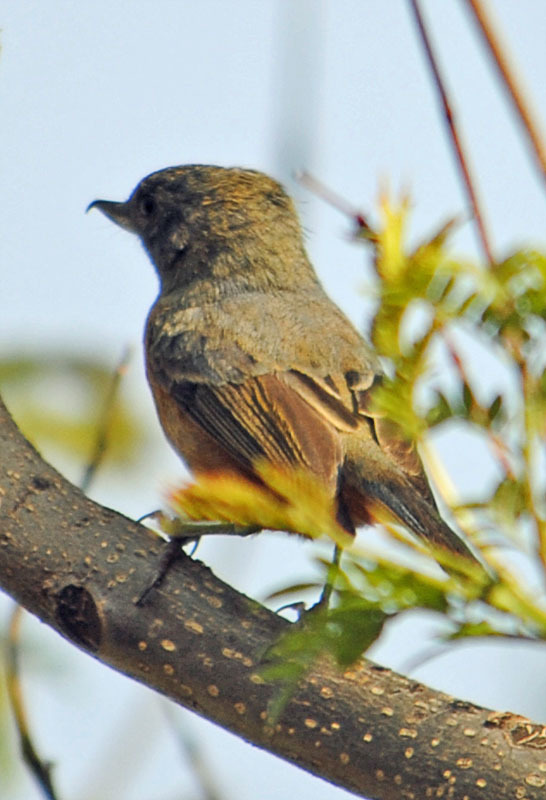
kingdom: Animalia
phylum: Chordata
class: Aves
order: Passeriformes
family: Thraupidae
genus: Diglossa
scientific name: Diglossa baritula
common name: Cinnamon-bellied flowerpiercer
